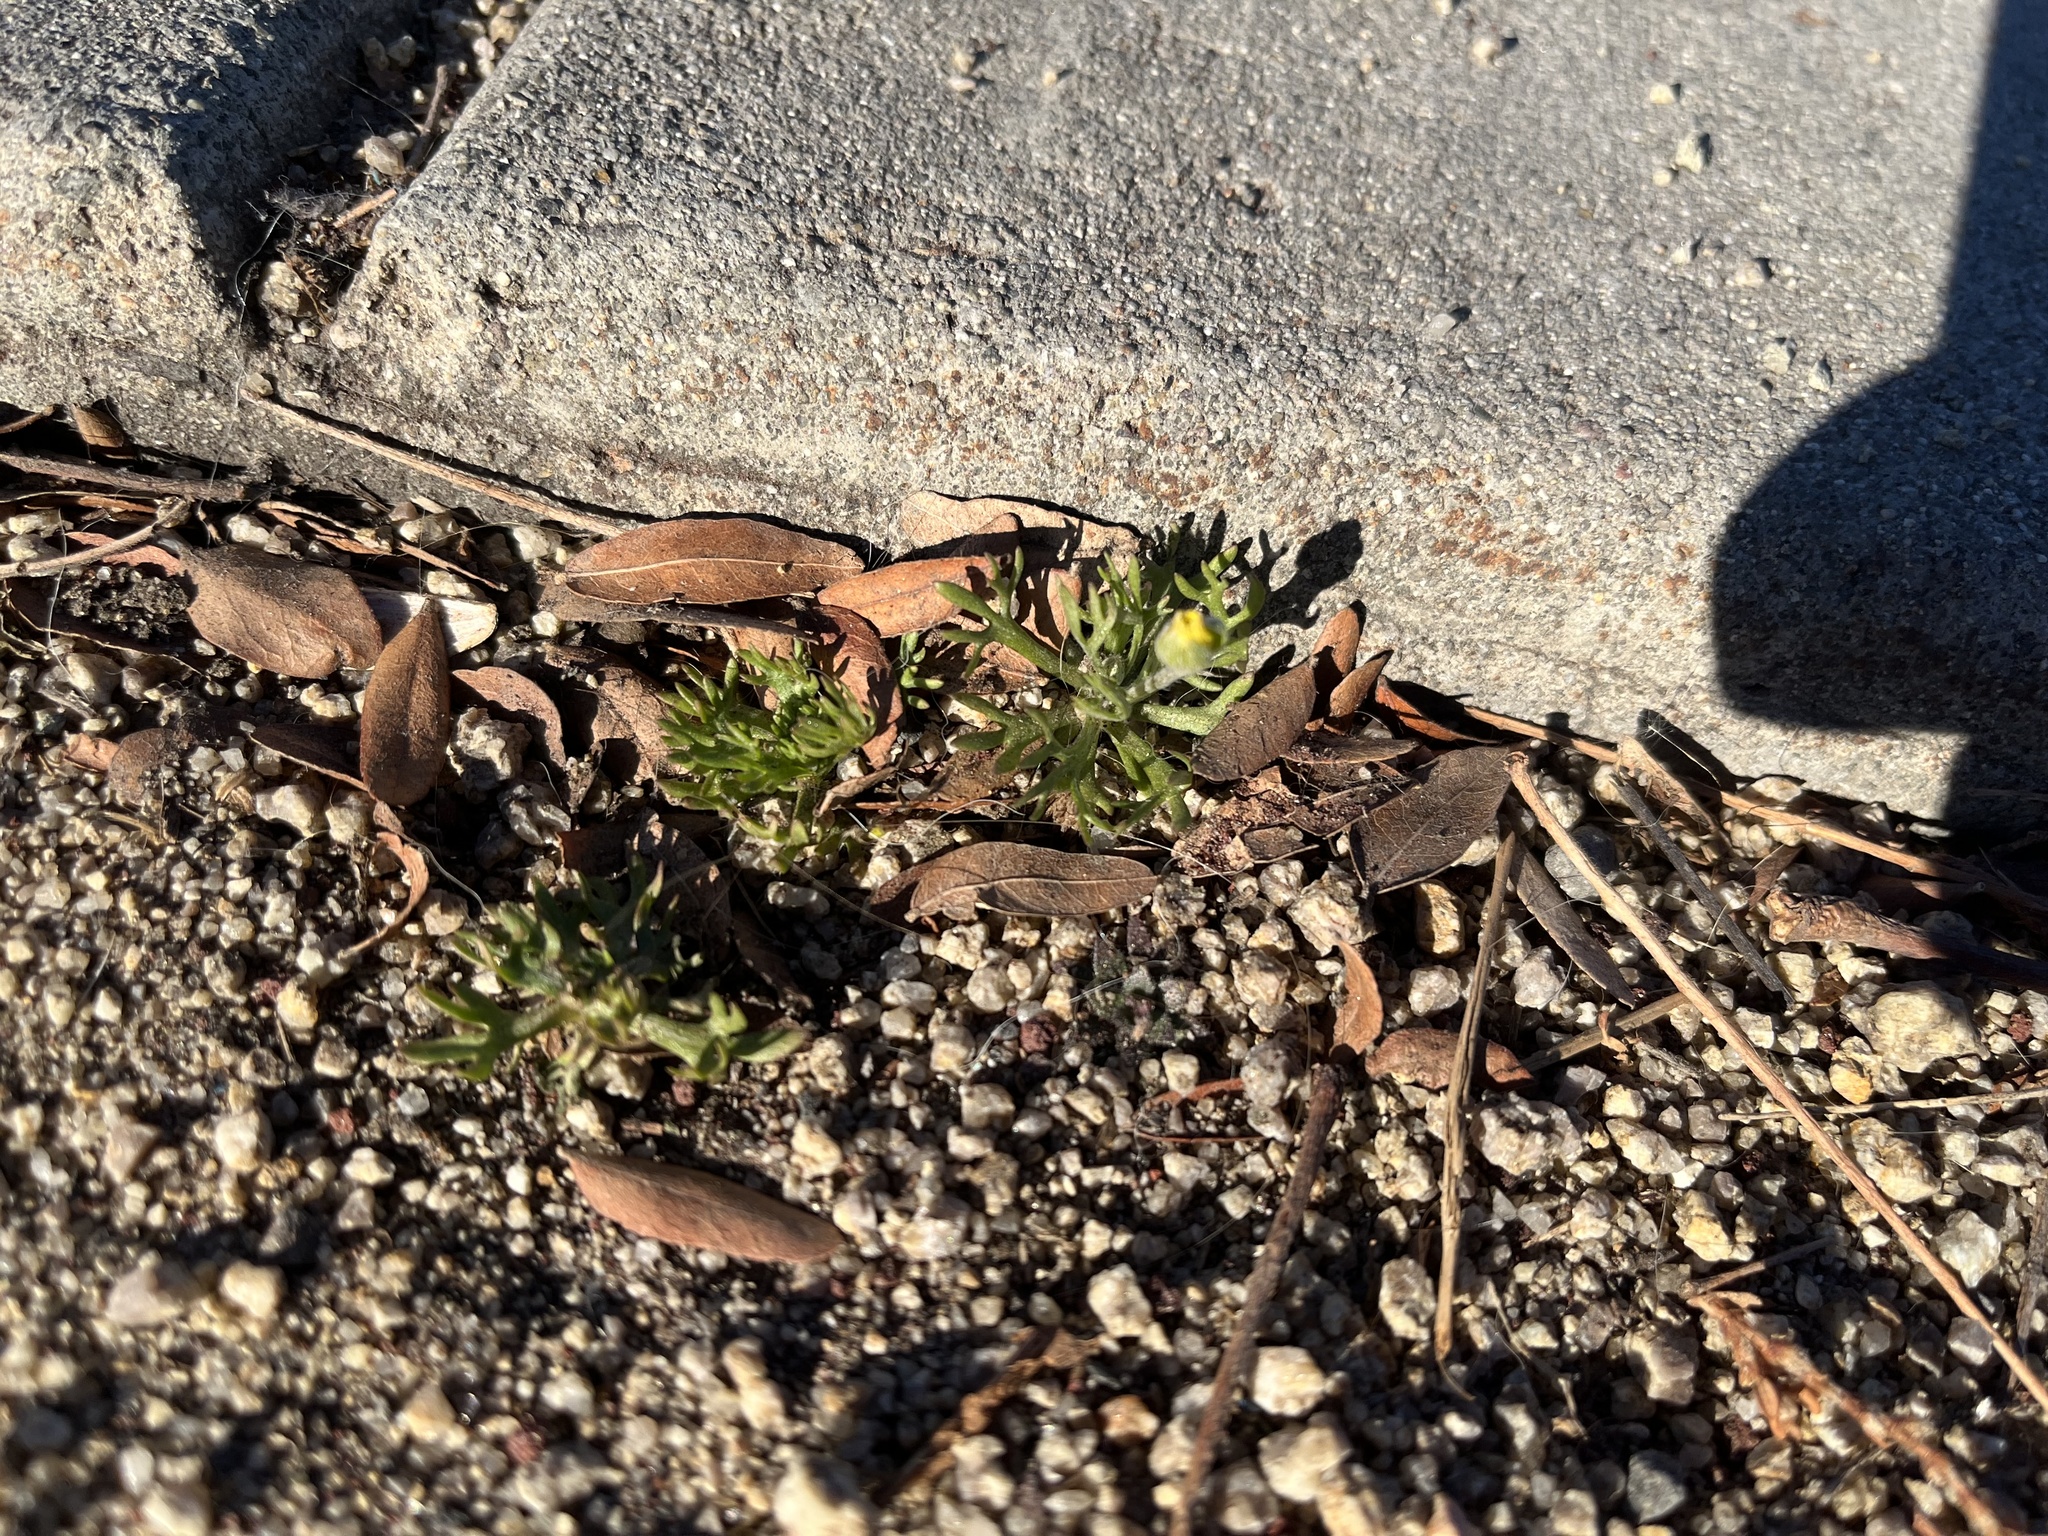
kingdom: Plantae
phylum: Tracheophyta
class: Magnoliopsida
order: Ranunculales
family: Ranunculaceae
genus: Ceratocephala
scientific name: Ceratocephala orthoceras
